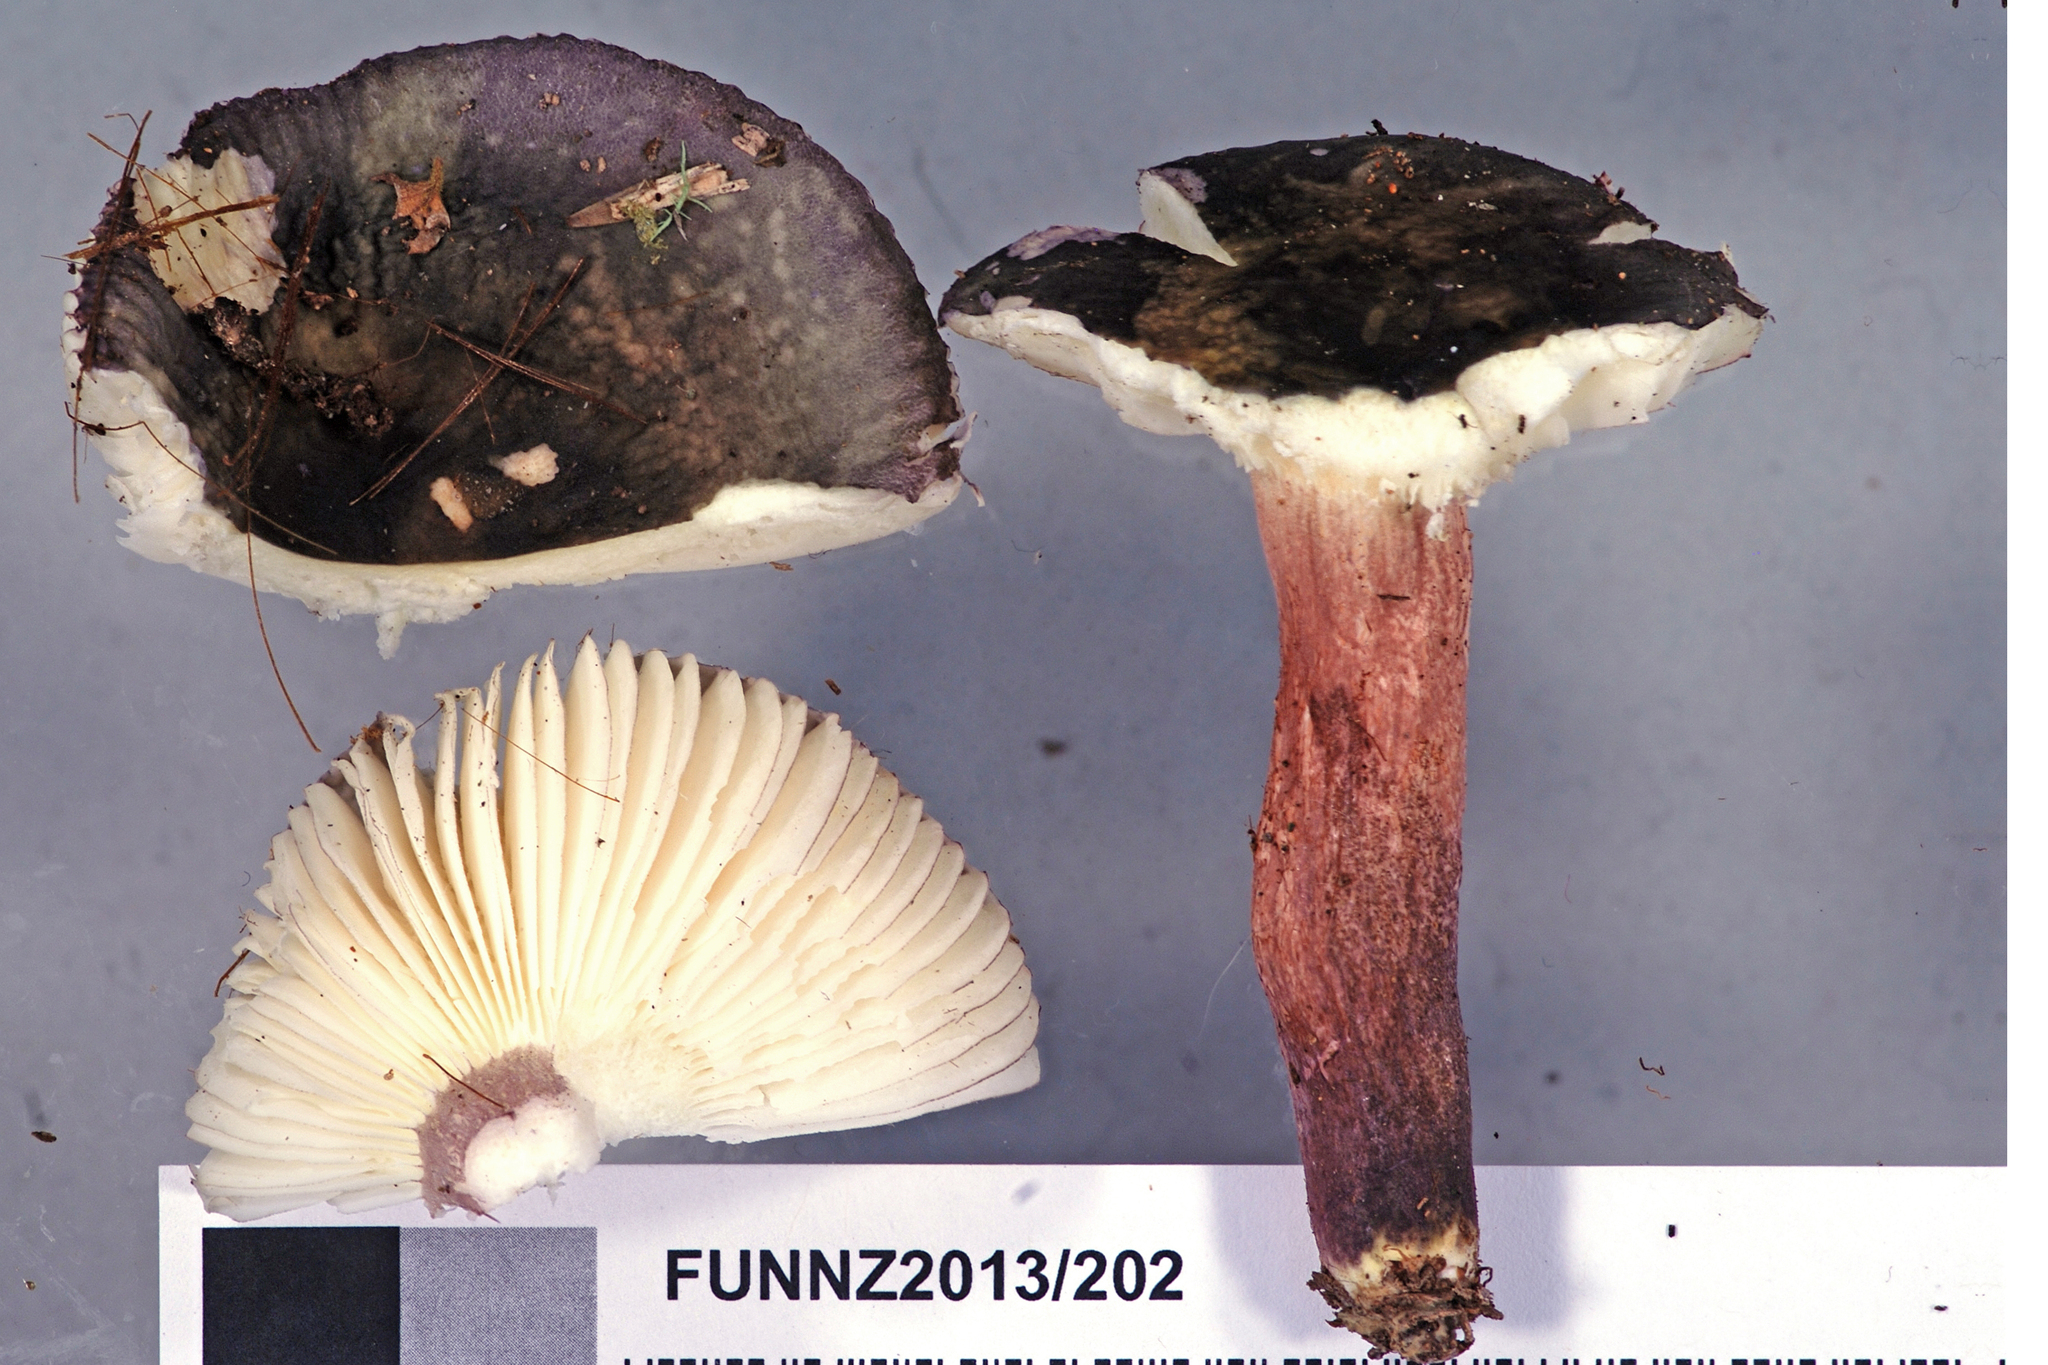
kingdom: Fungi
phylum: Basidiomycota
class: Agaricomycetes
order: Russulales
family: Russulaceae
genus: Russula
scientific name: Russula macrocystidiata
